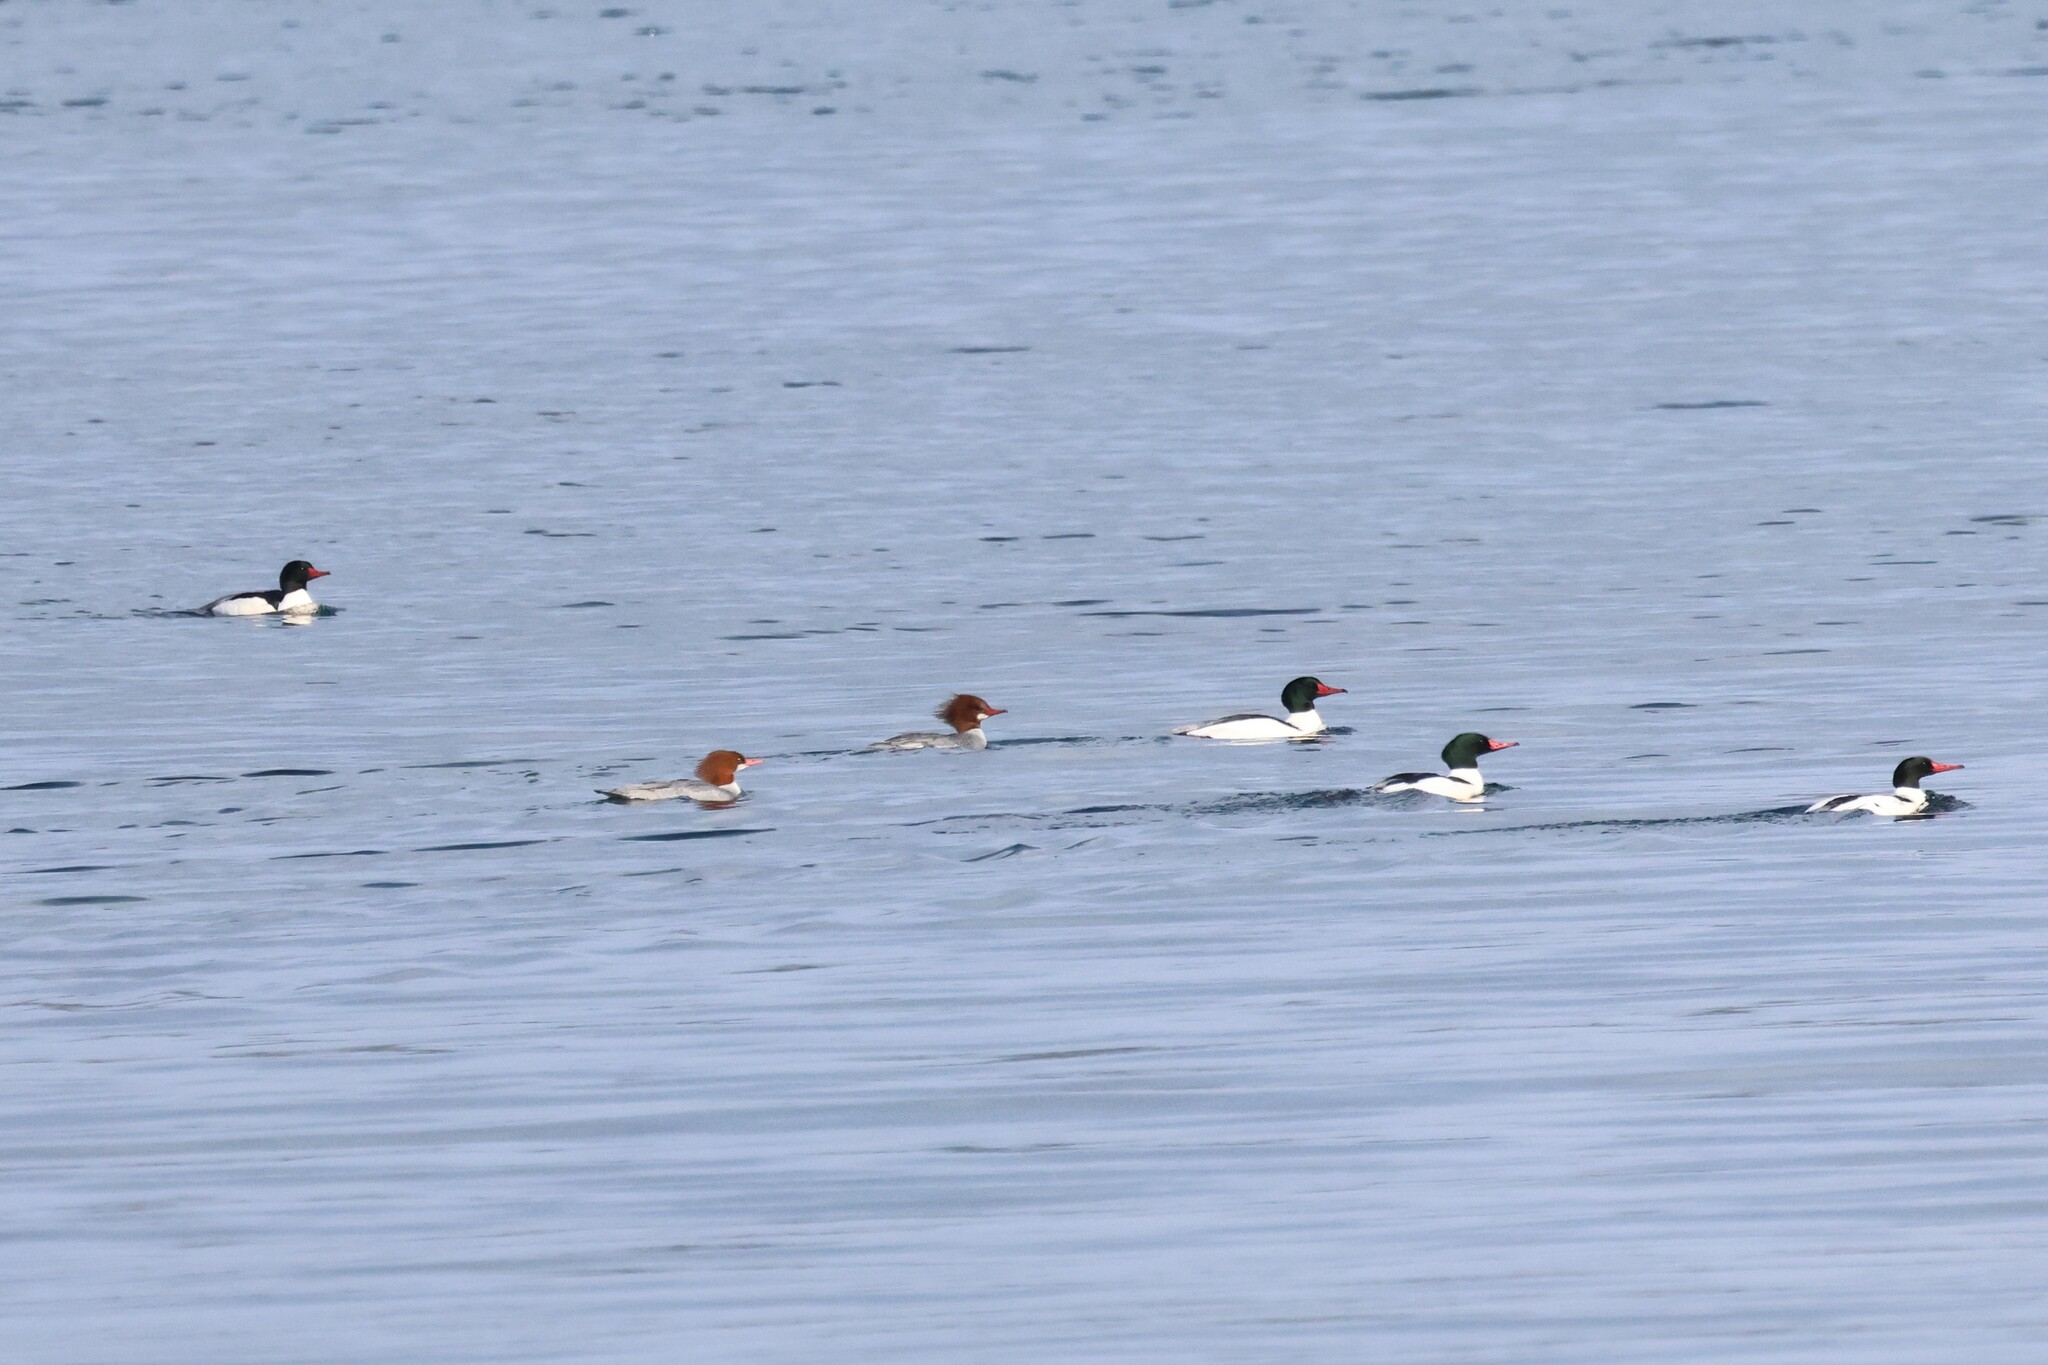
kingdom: Animalia
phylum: Chordata
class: Aves
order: Anseriformes
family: Anatidae
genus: Mergus
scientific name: Mergus merganser
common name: Common merganser
